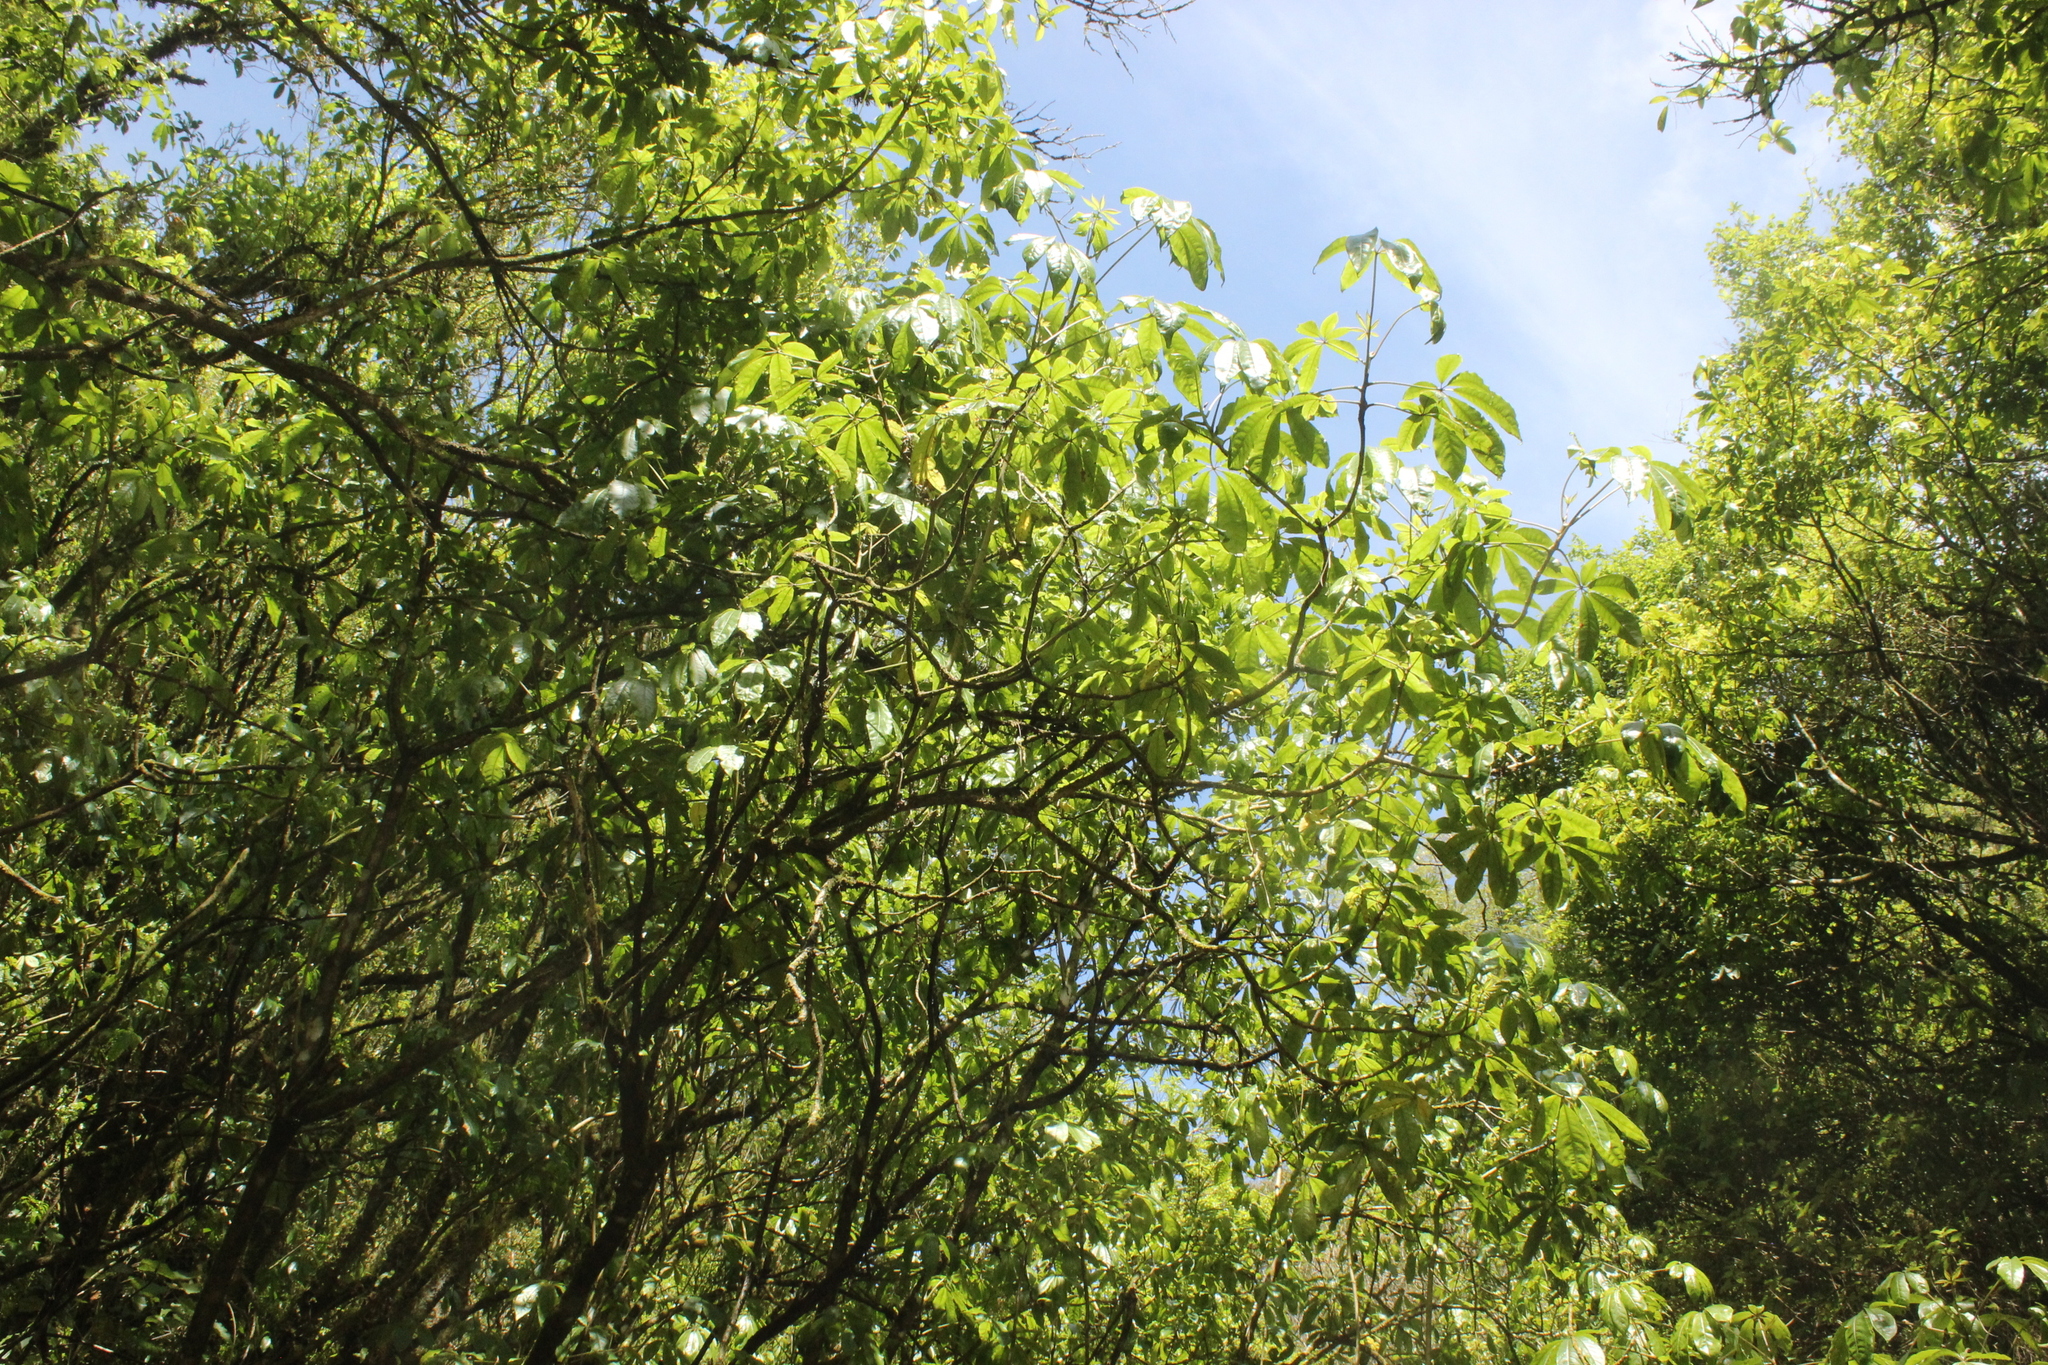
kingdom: Plantae
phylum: Tracheophyta
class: Magnoliopsida
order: Apiales
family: Araliaceae
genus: Schefflera
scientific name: Schefflera digitata
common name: Pate
